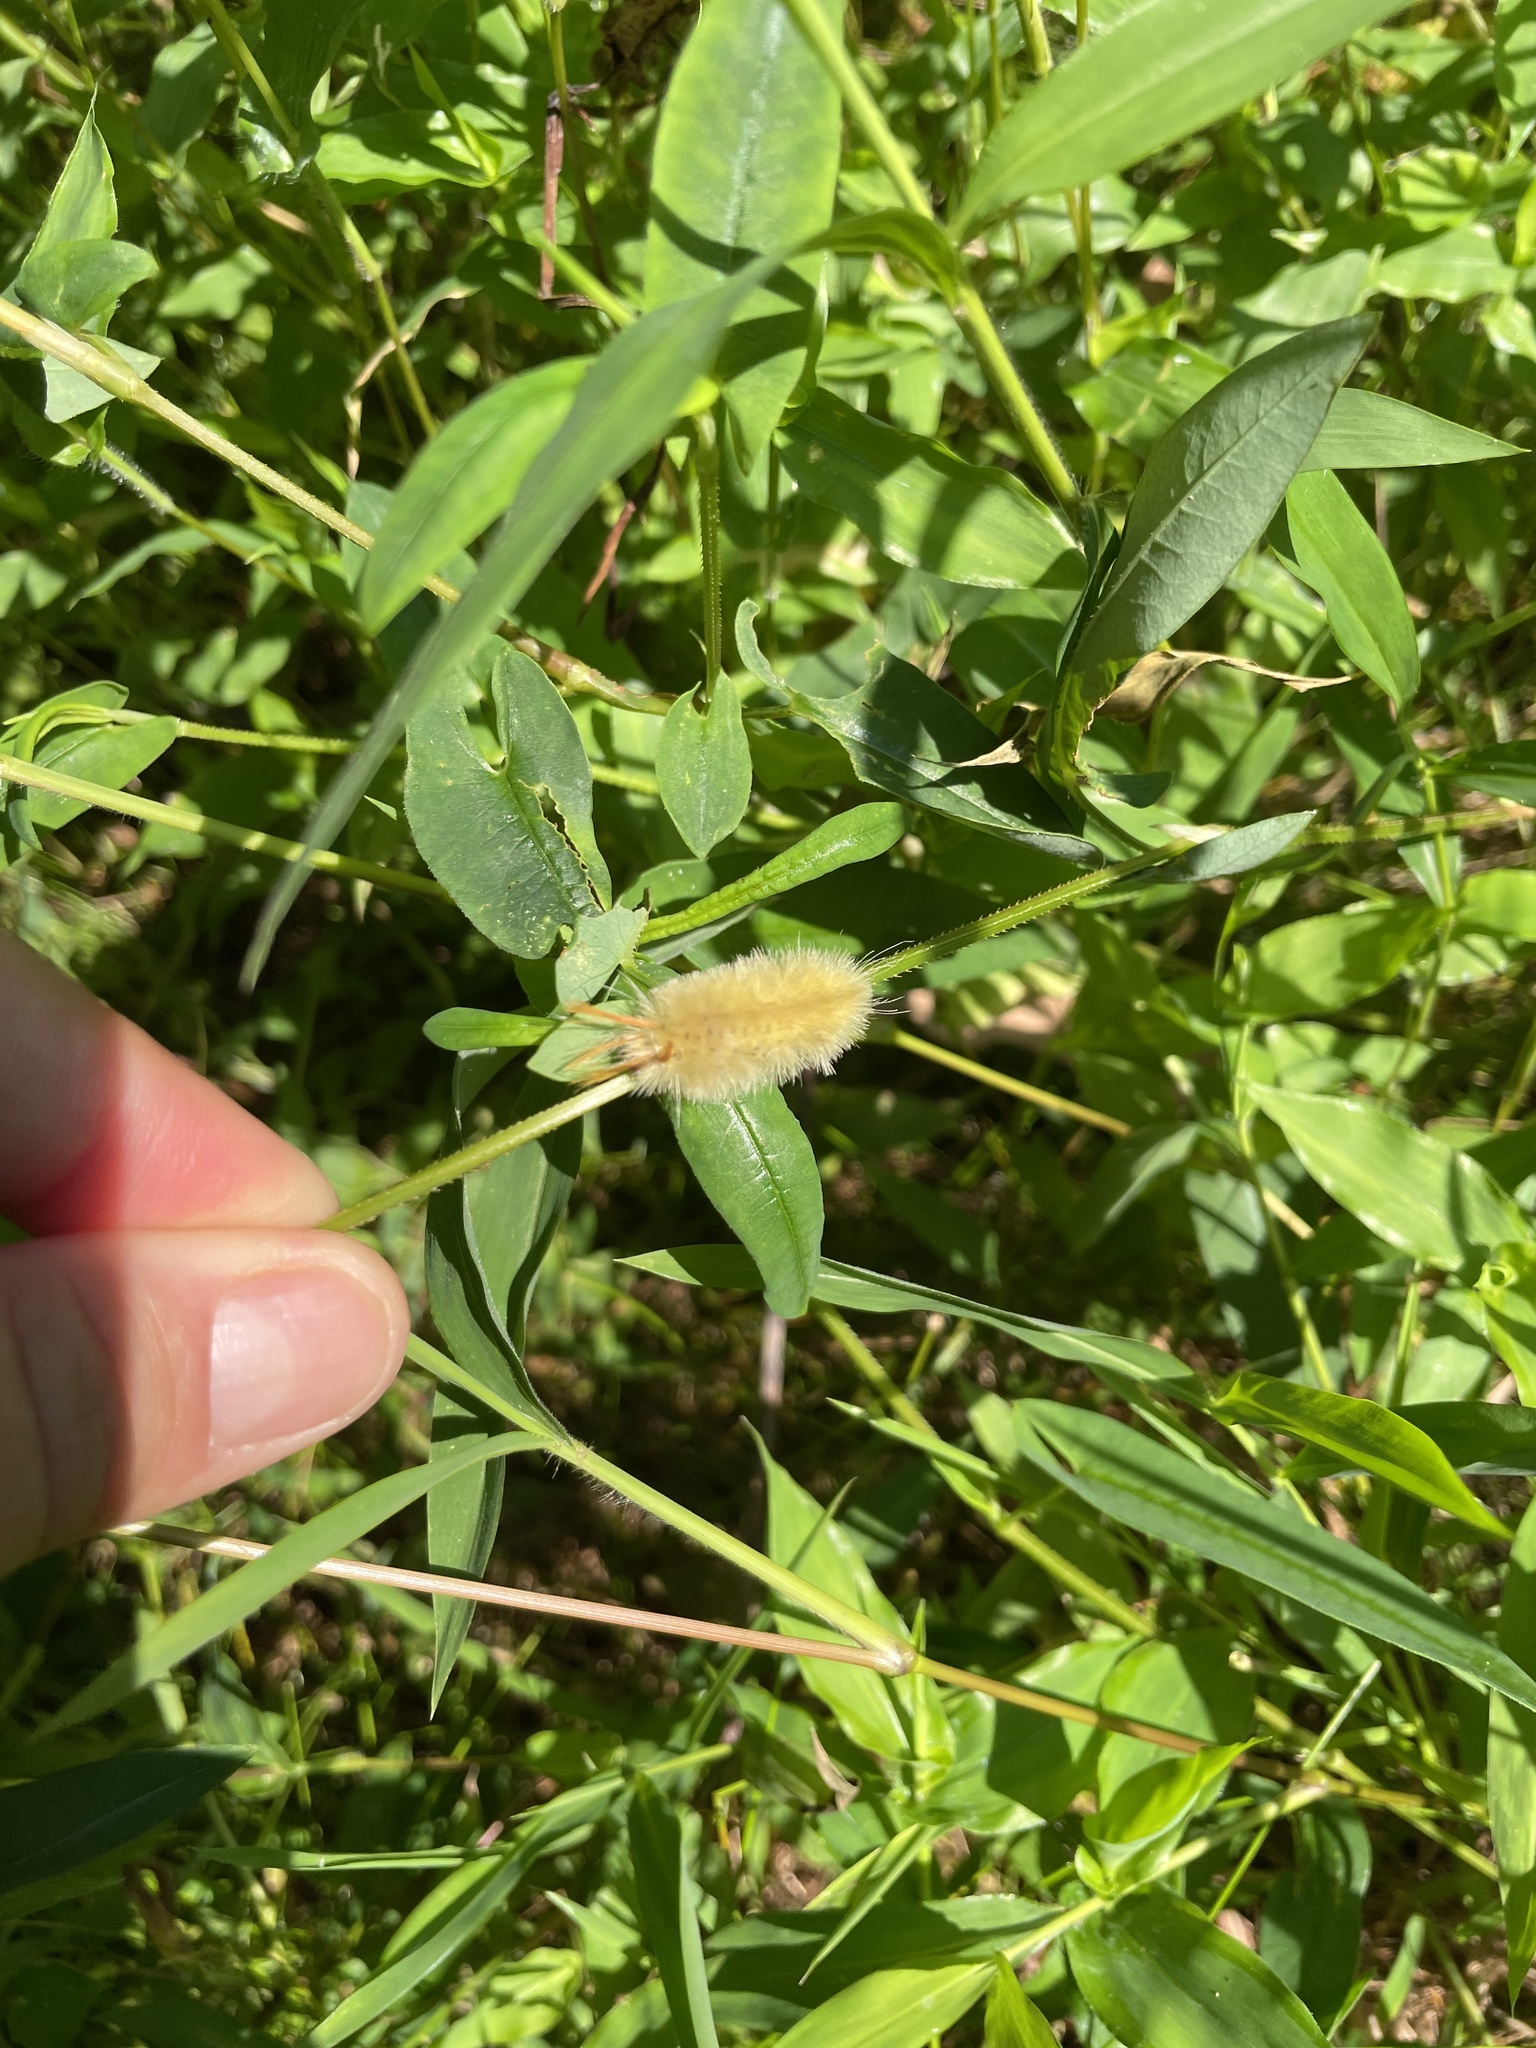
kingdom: Animalia
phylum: Arthropoda
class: Insecta
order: Lepidoptera
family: Erebidae
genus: Halysidota
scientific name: Halysidota harrisii
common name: Sycamore tussock moth
